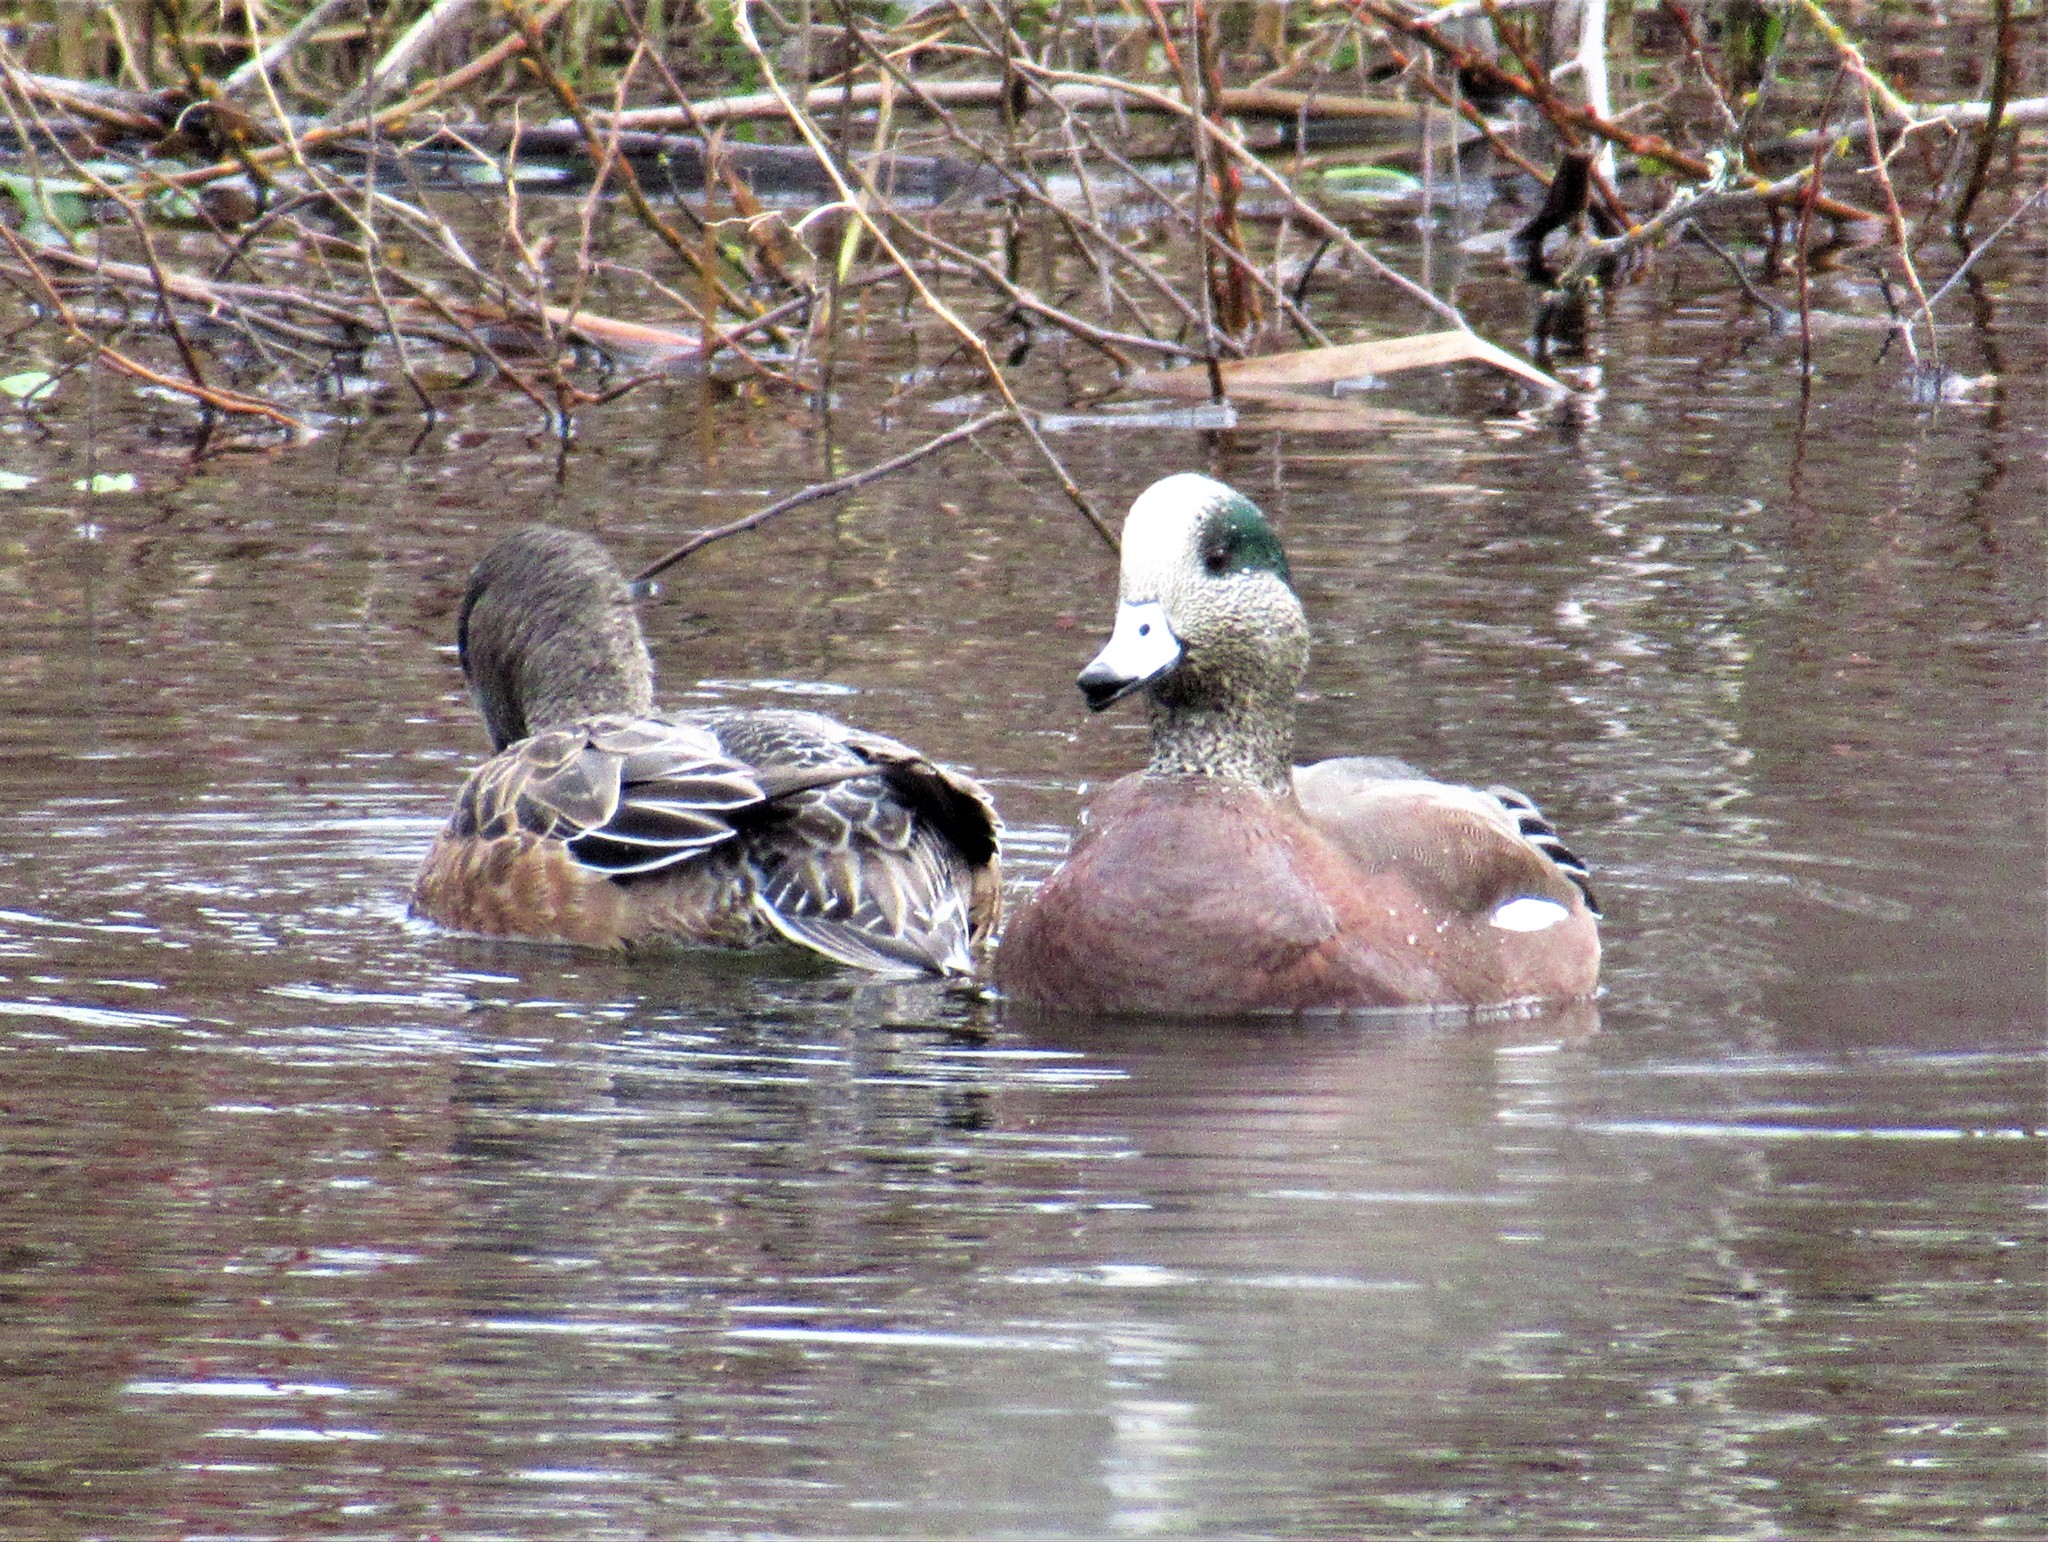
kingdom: Animalia
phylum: Chordata
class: Aves
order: Anseriformes
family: Anatidae
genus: Mareca
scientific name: Mareca americana
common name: American wigeon
